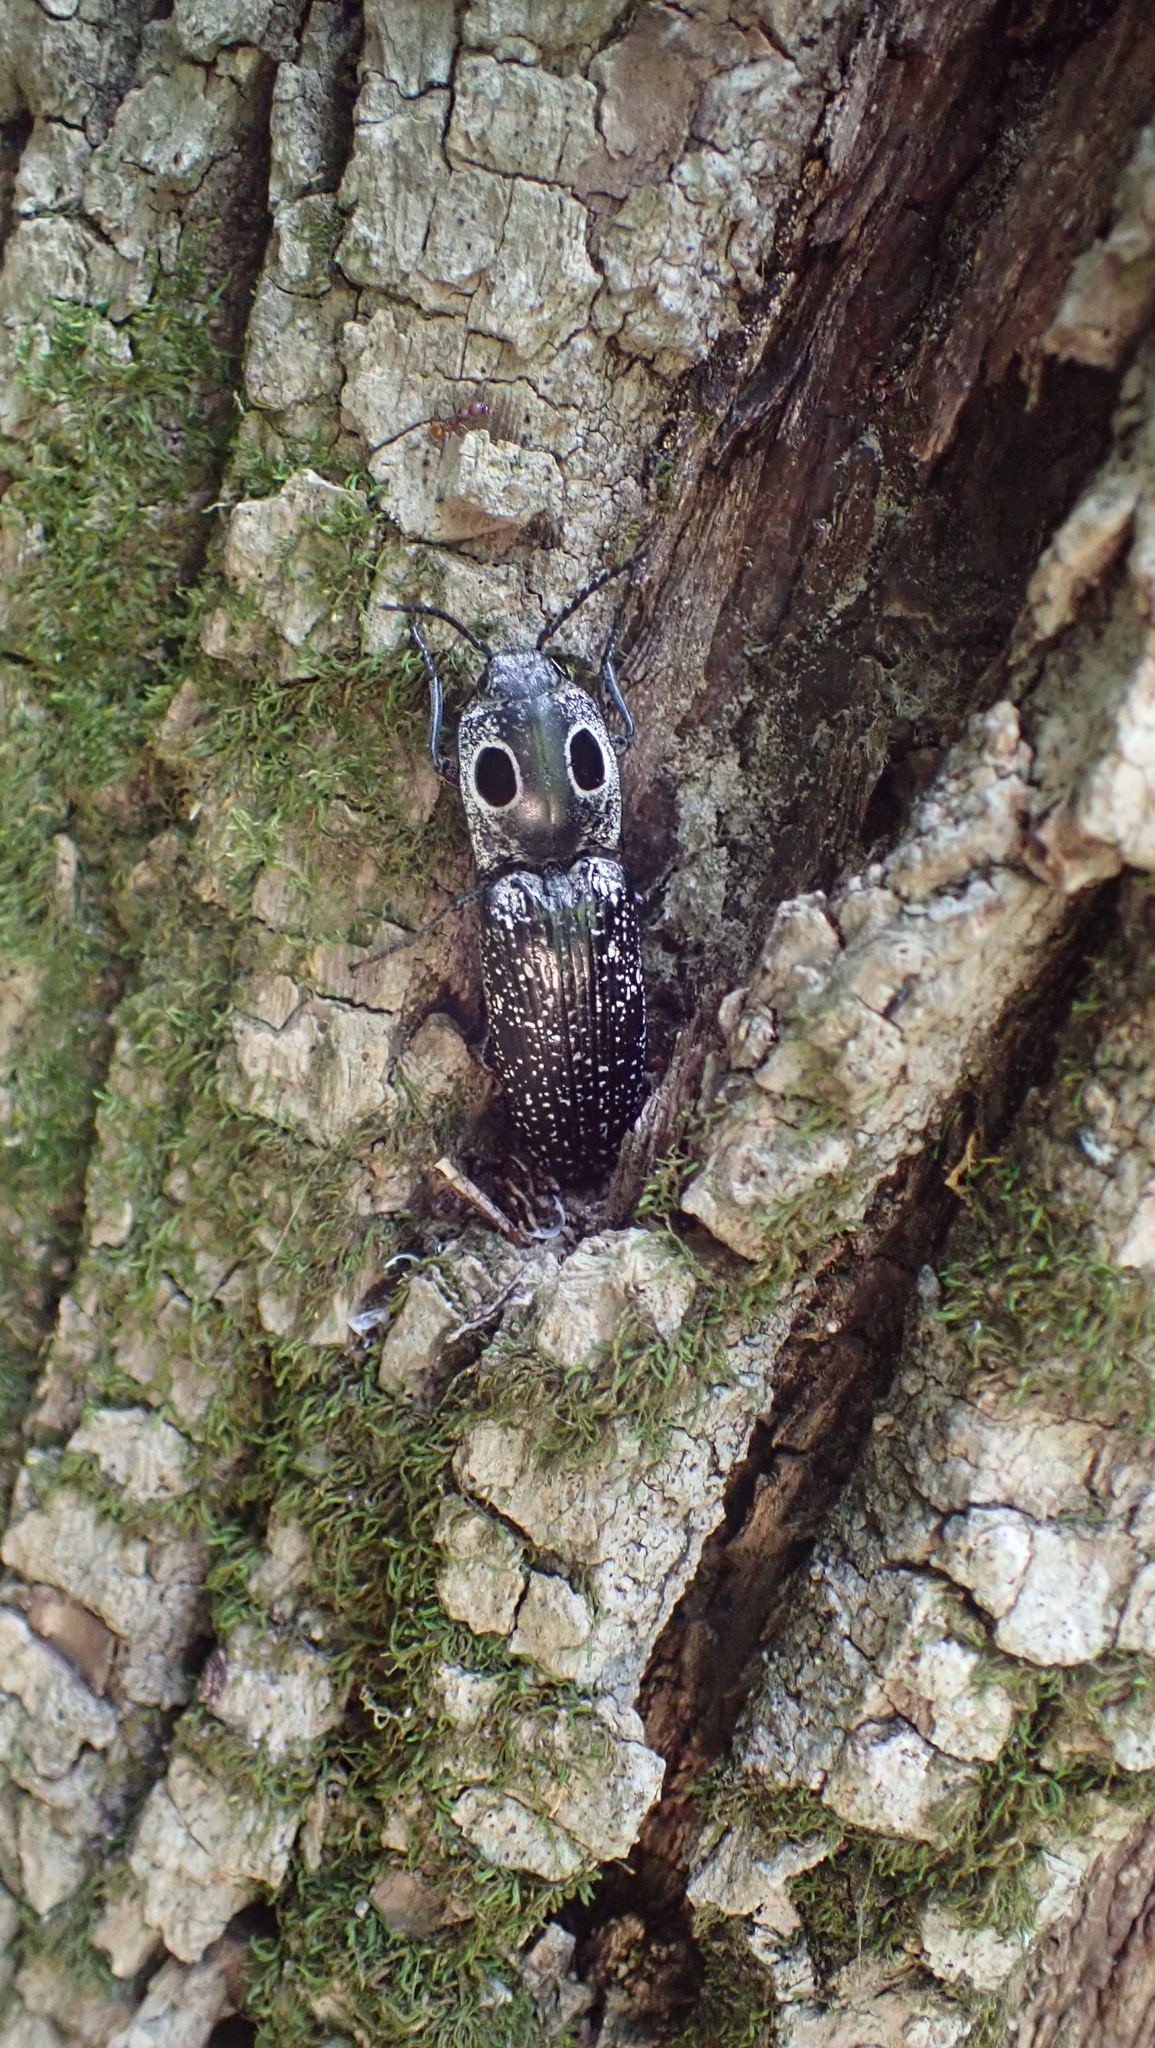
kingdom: Animalia
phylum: Arthropoda
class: Insecta
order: Coleoptera
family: Elateridae
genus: Alaus
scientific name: Alaus oculatus
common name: Eastern eyed click beetle
